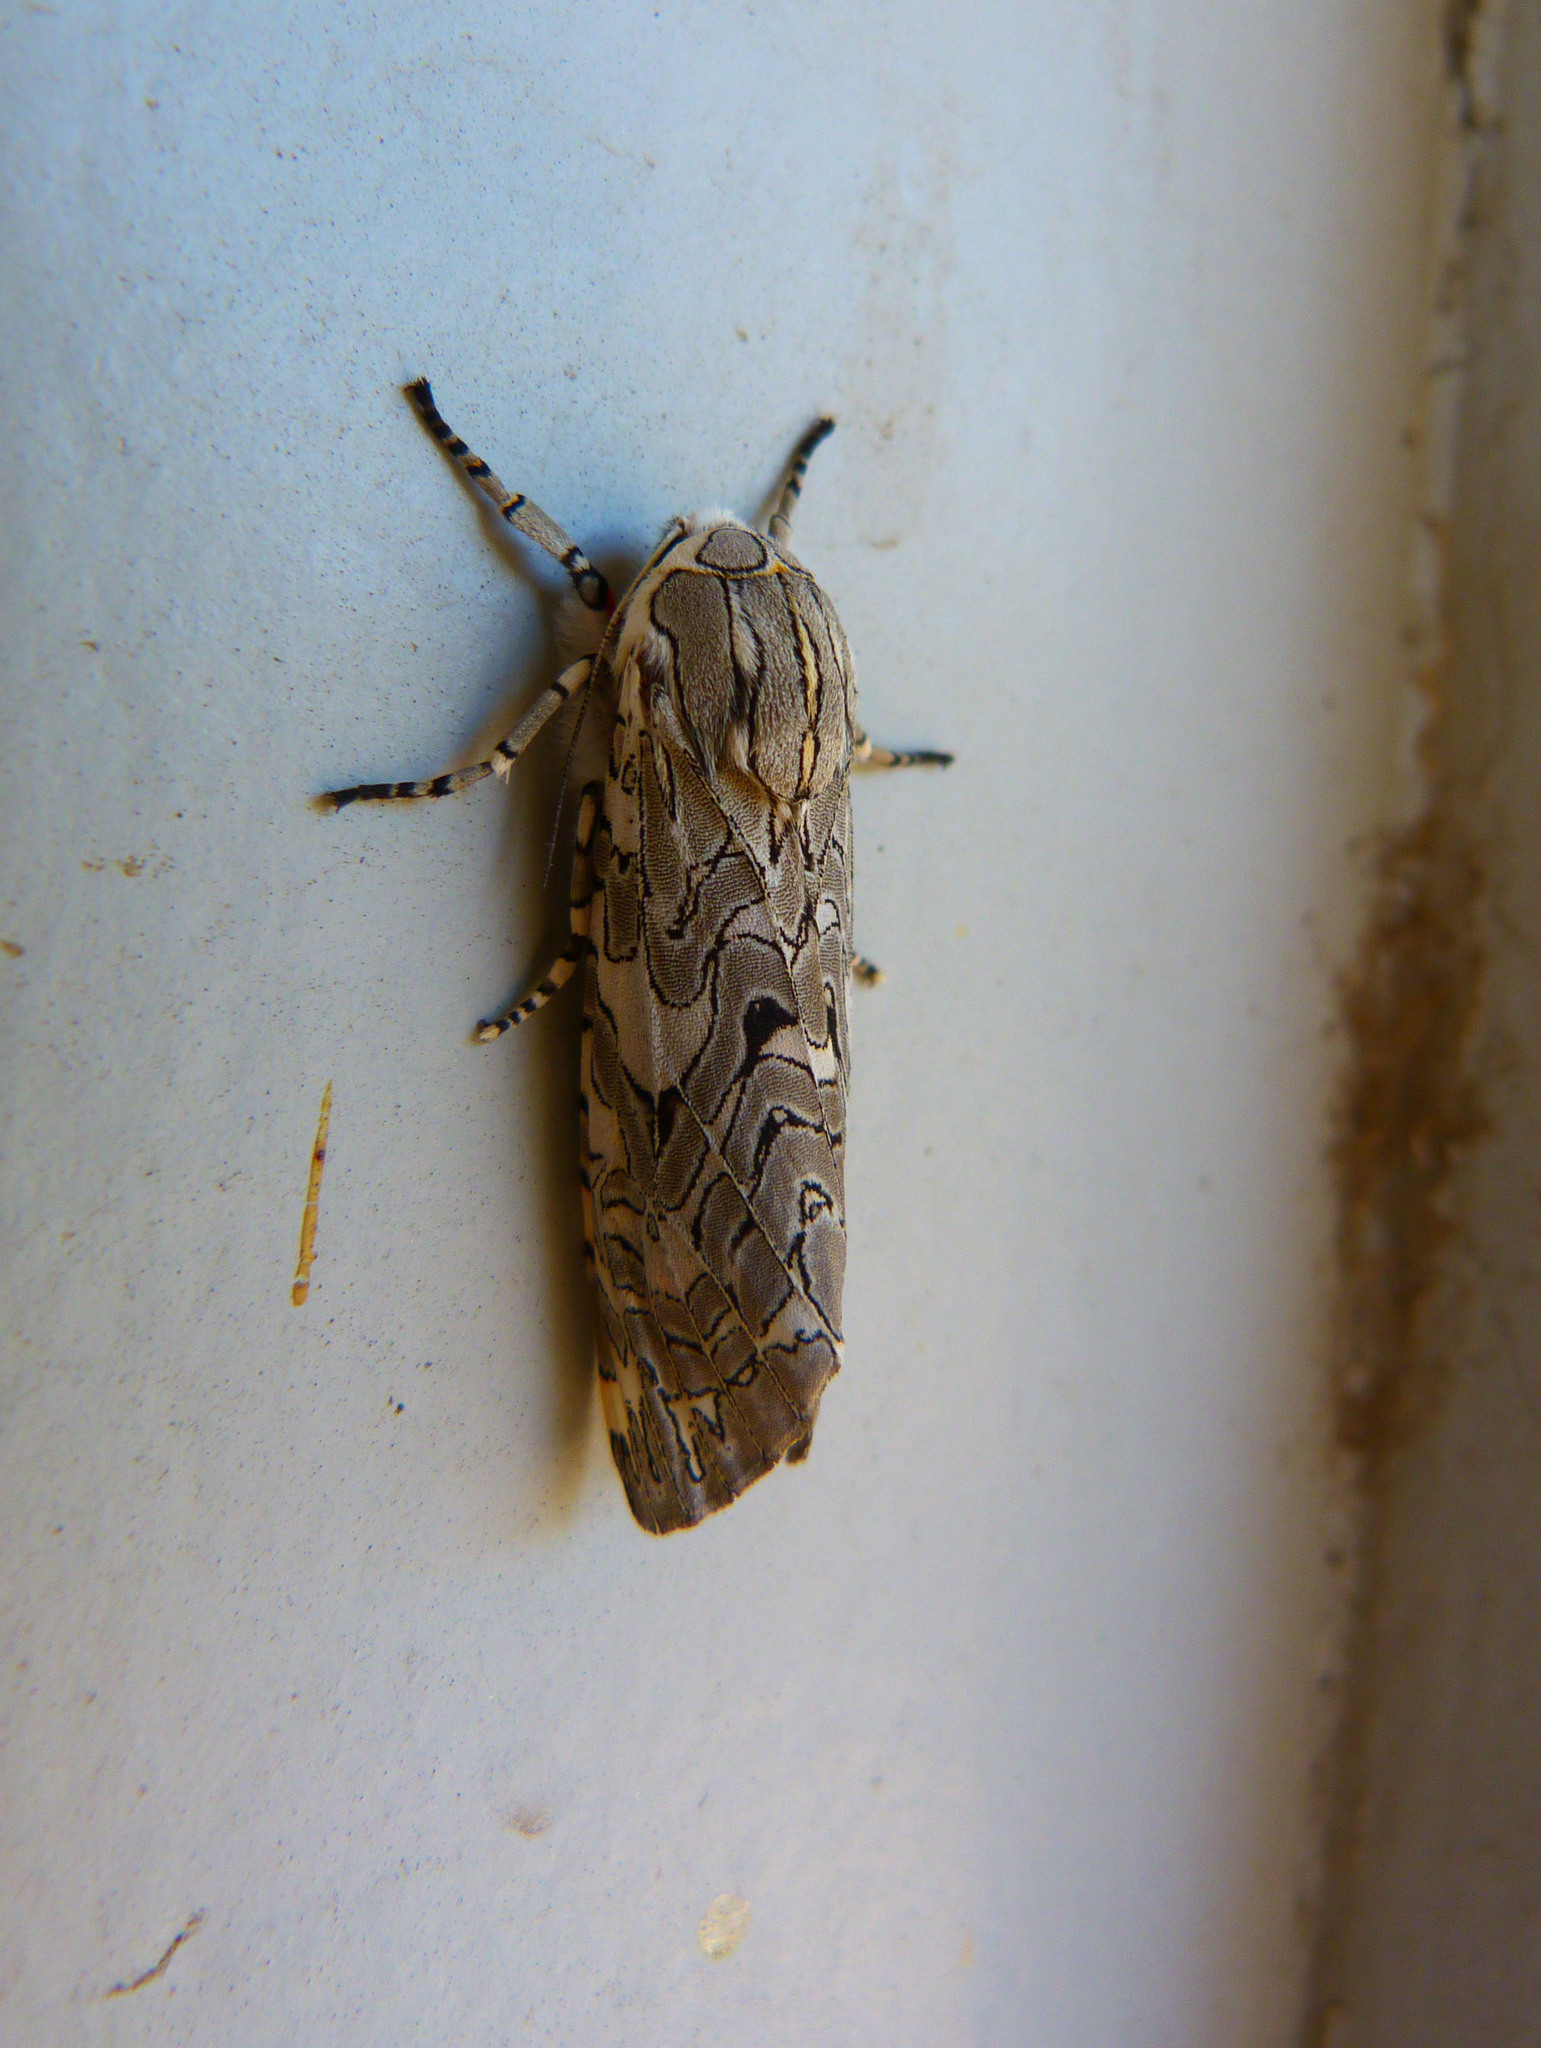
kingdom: Animalia
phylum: Arthropoda
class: Insecta
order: Lepidoptera
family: Erebidae
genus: Arachnis
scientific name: Arachnis picta
